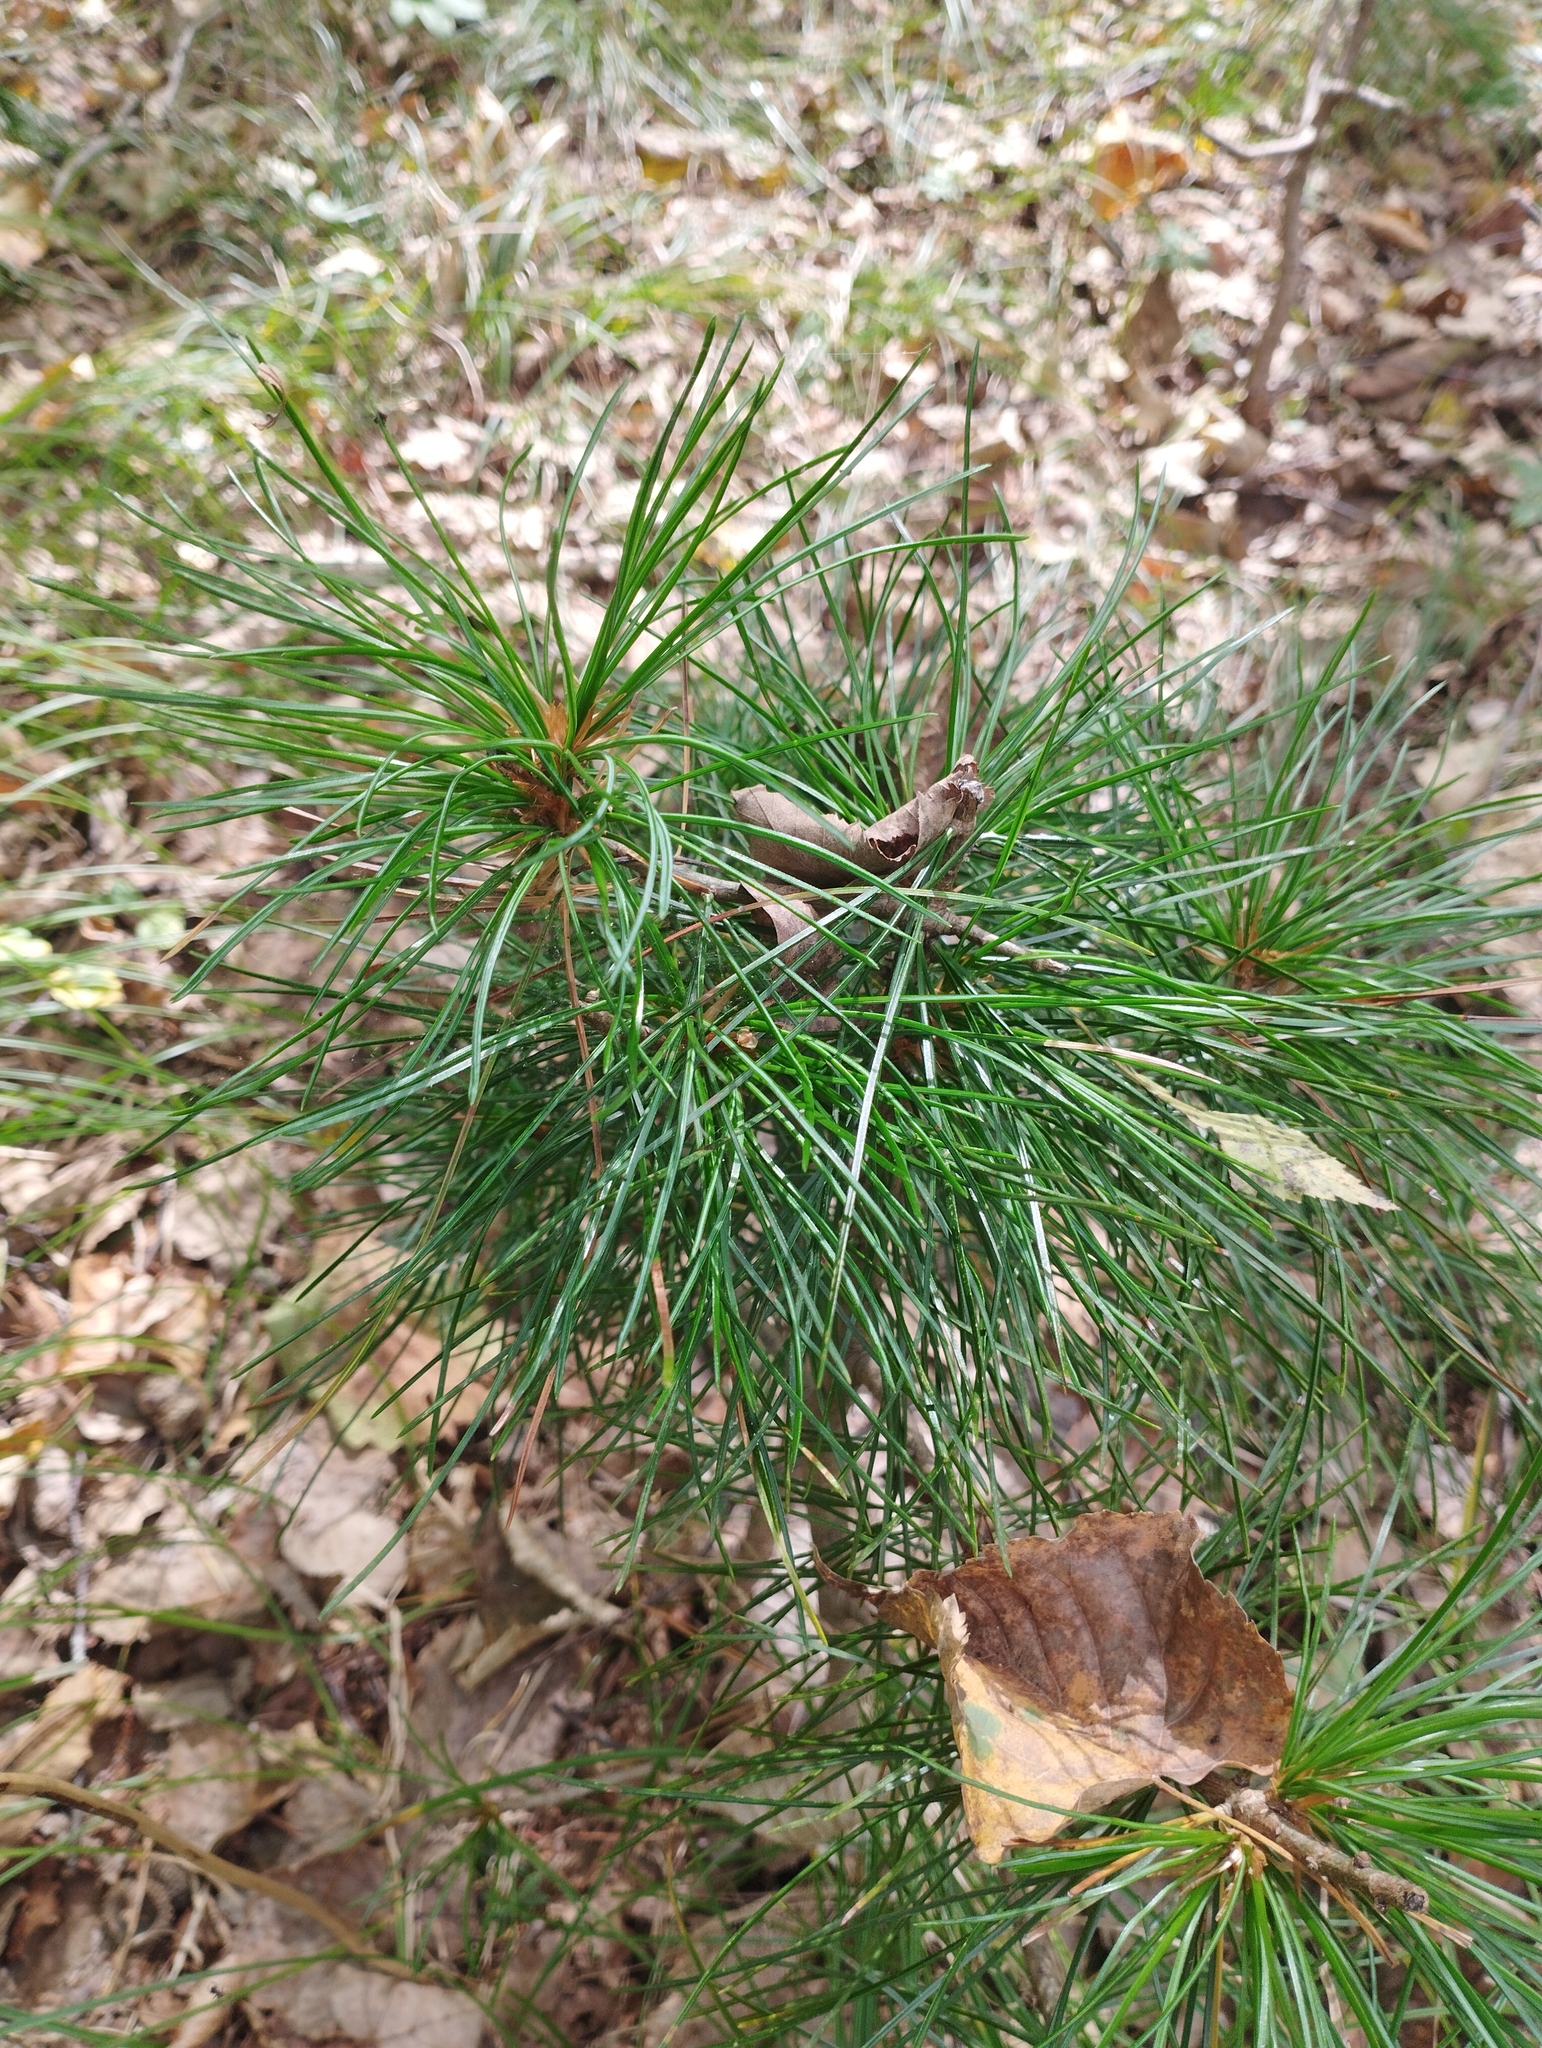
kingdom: Plantae
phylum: Tracheophyta
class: Pinopsida
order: Pinales
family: Pinaceae
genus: Pinus
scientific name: Pinus koraiensis
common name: Korean pine
